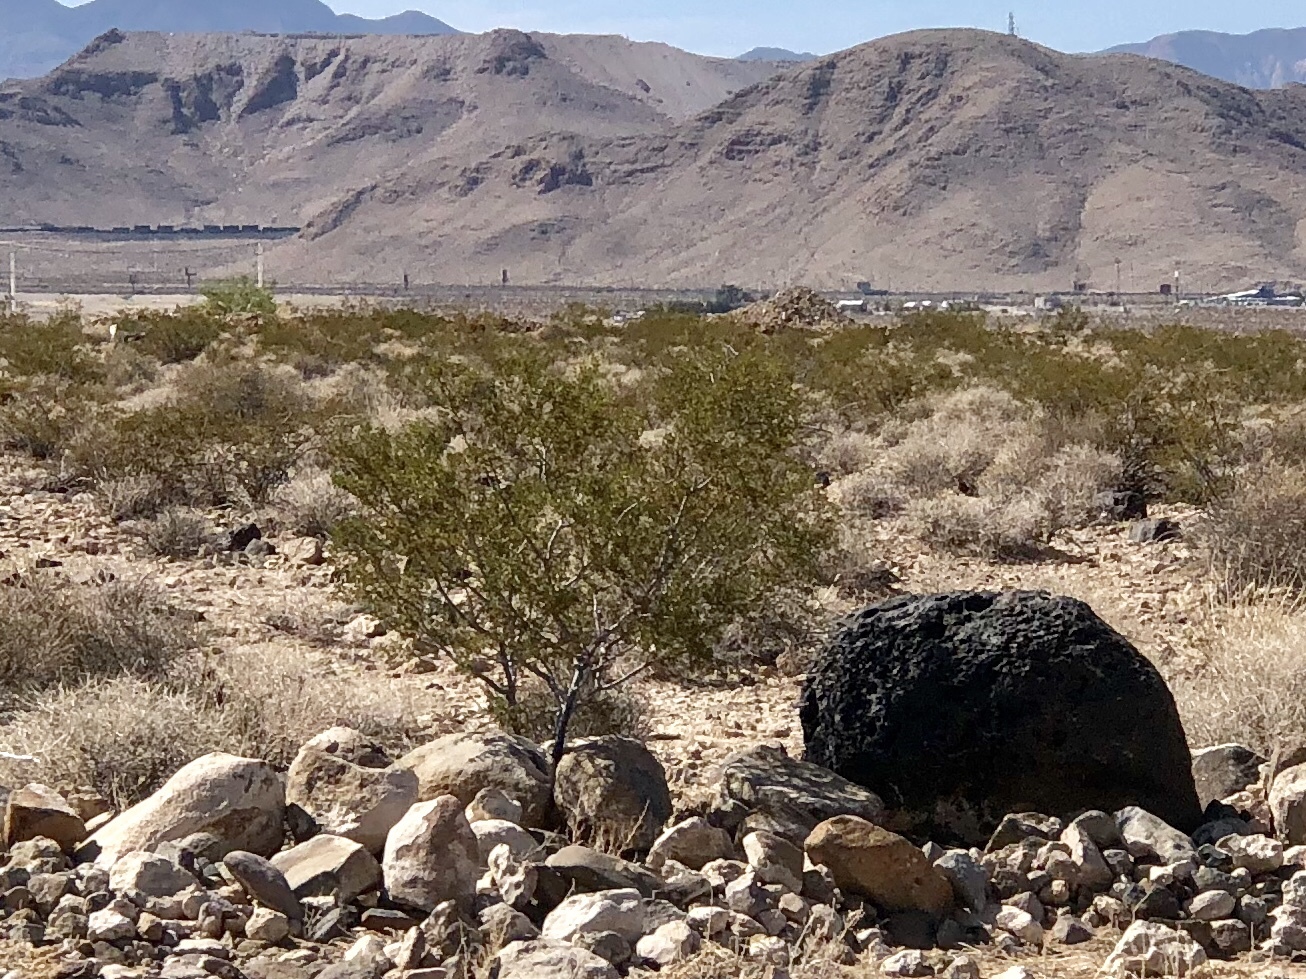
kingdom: Plantae
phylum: Tracheophyta
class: Magnoliopsida
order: Zygophyllales
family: Zygophyllaceae
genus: Larrea
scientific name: Larrea tridentata
